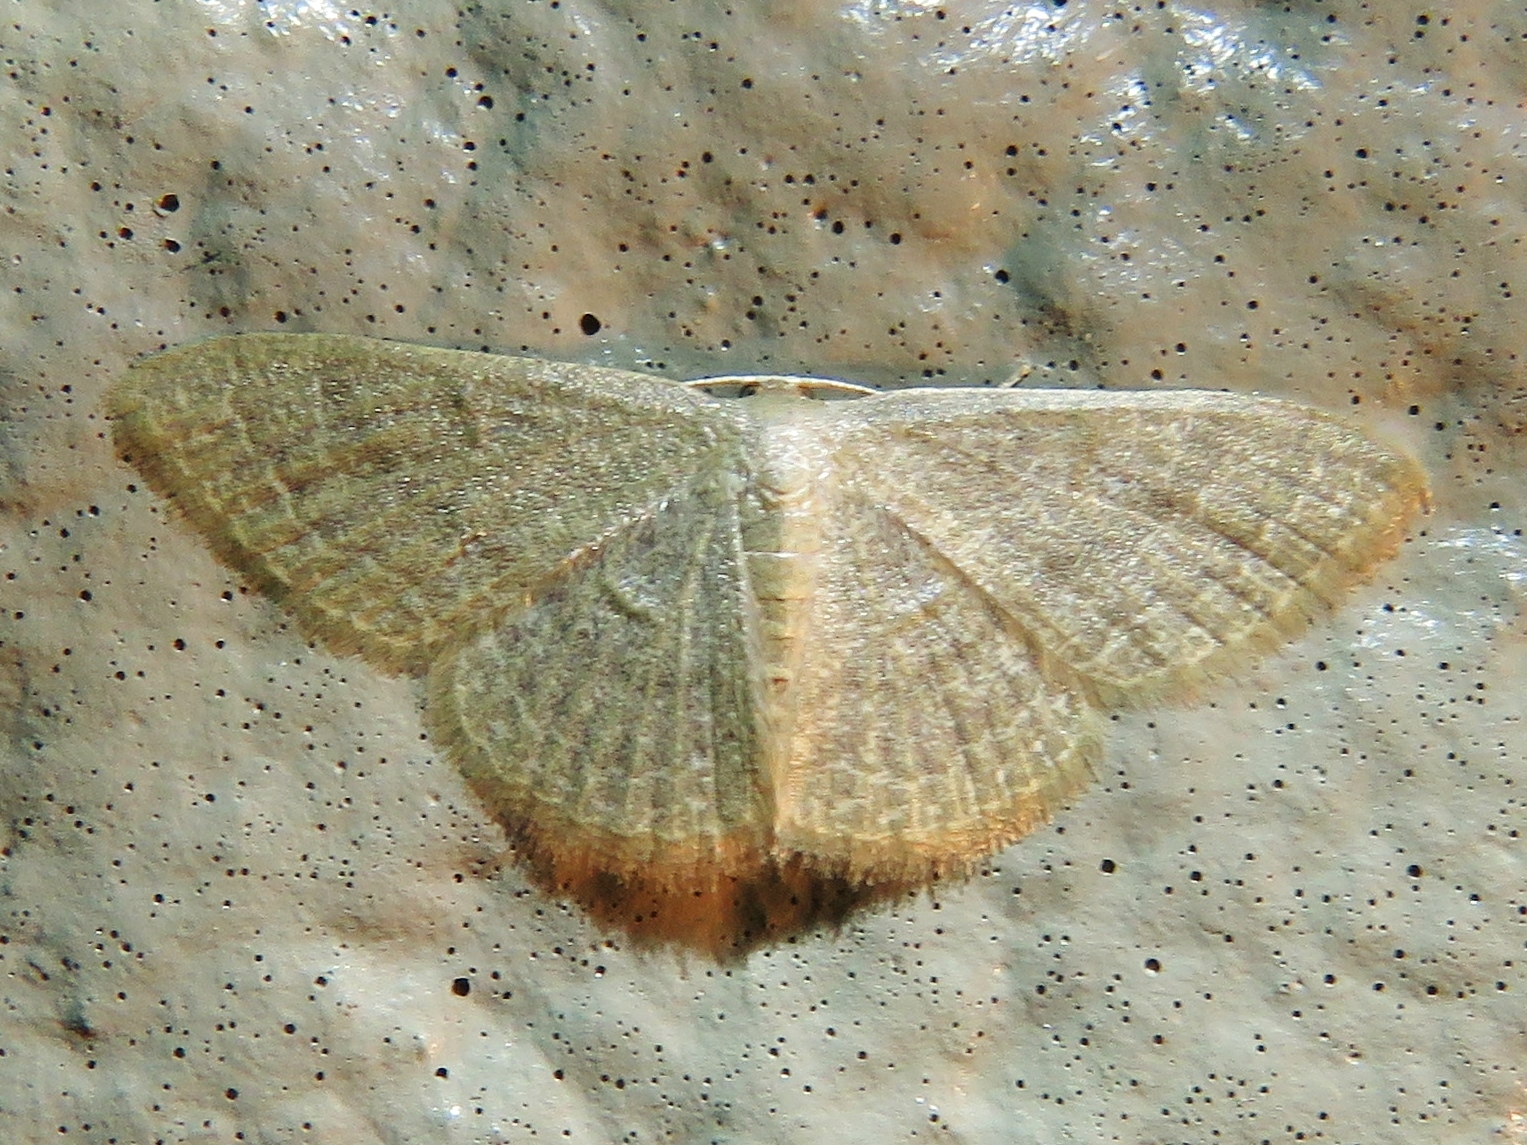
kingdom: Animalia
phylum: Arthropoda
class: Insecta
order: Lepidoptera
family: Geometridae
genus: Pleuroprucha
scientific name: Pleuroprucha insulsaria
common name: Common tan wave
